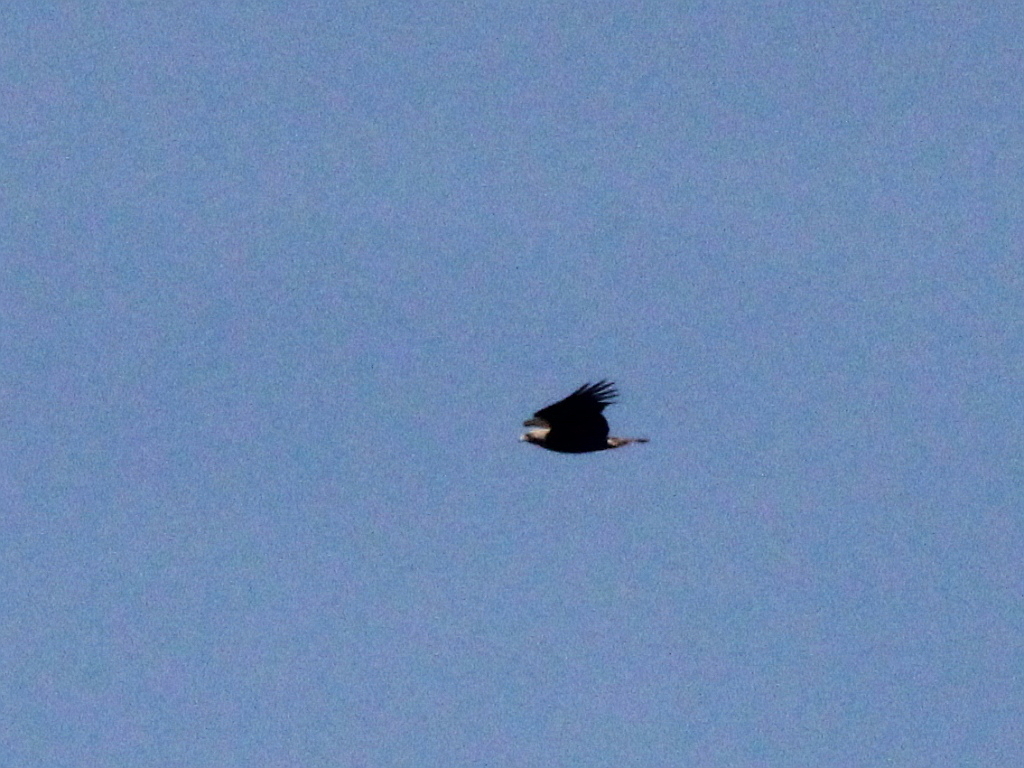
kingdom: Animalia
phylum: Chordata
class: Aves
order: Accipitriformes
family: Accipitridae
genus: Aquila
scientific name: Aquila heliaca
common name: Eastern imperial eagle
